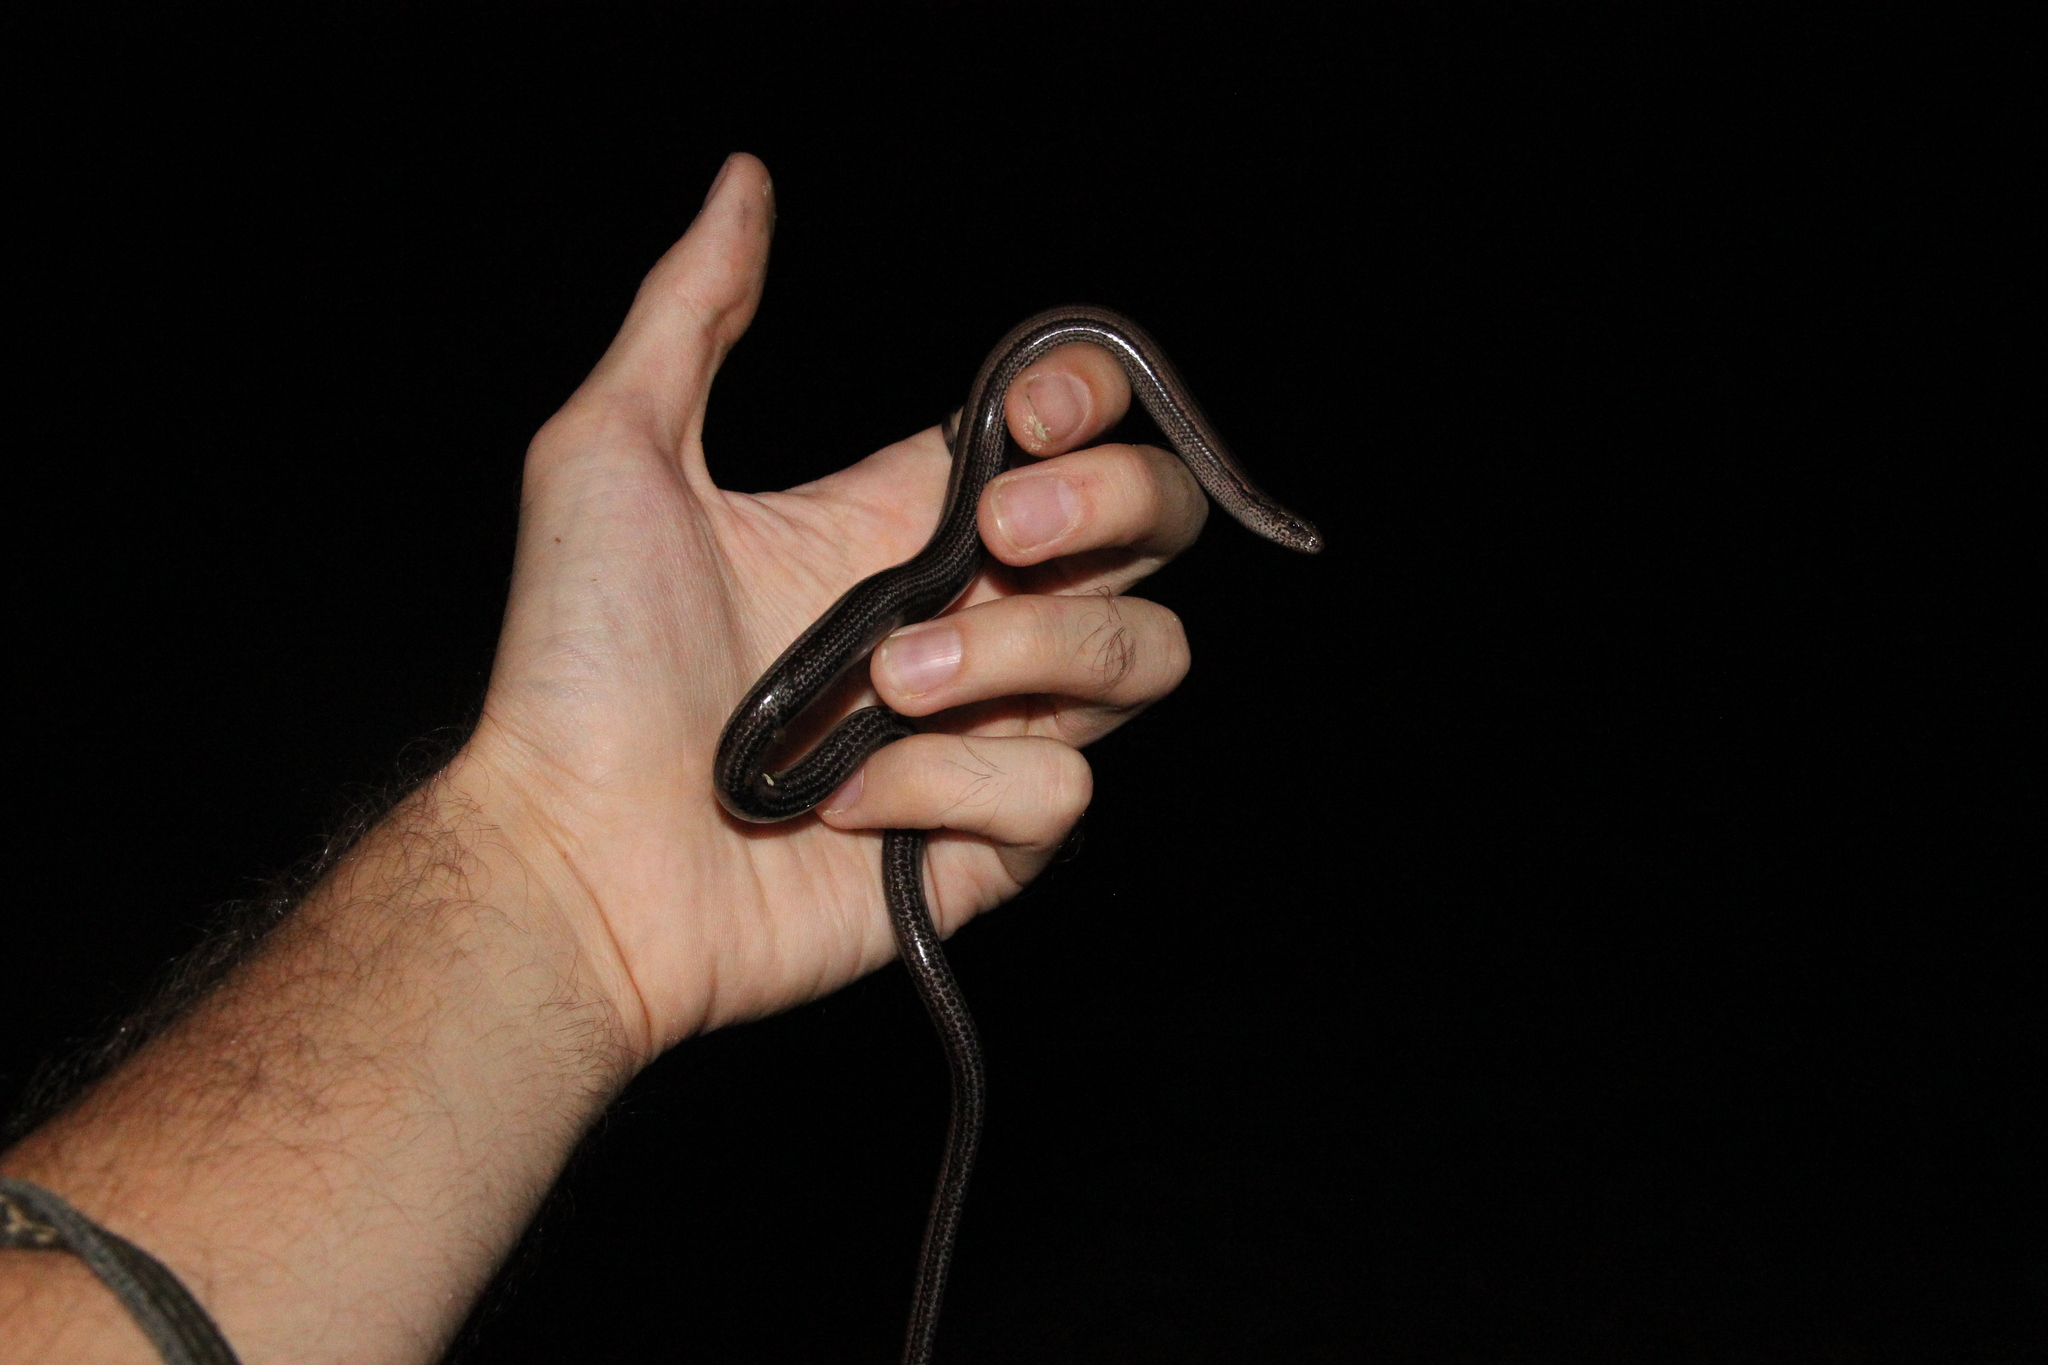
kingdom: Animalia
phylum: Chordata
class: Squamata
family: Anguidae
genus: Anguis
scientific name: Anguis veronensis
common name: Italian slow worm
